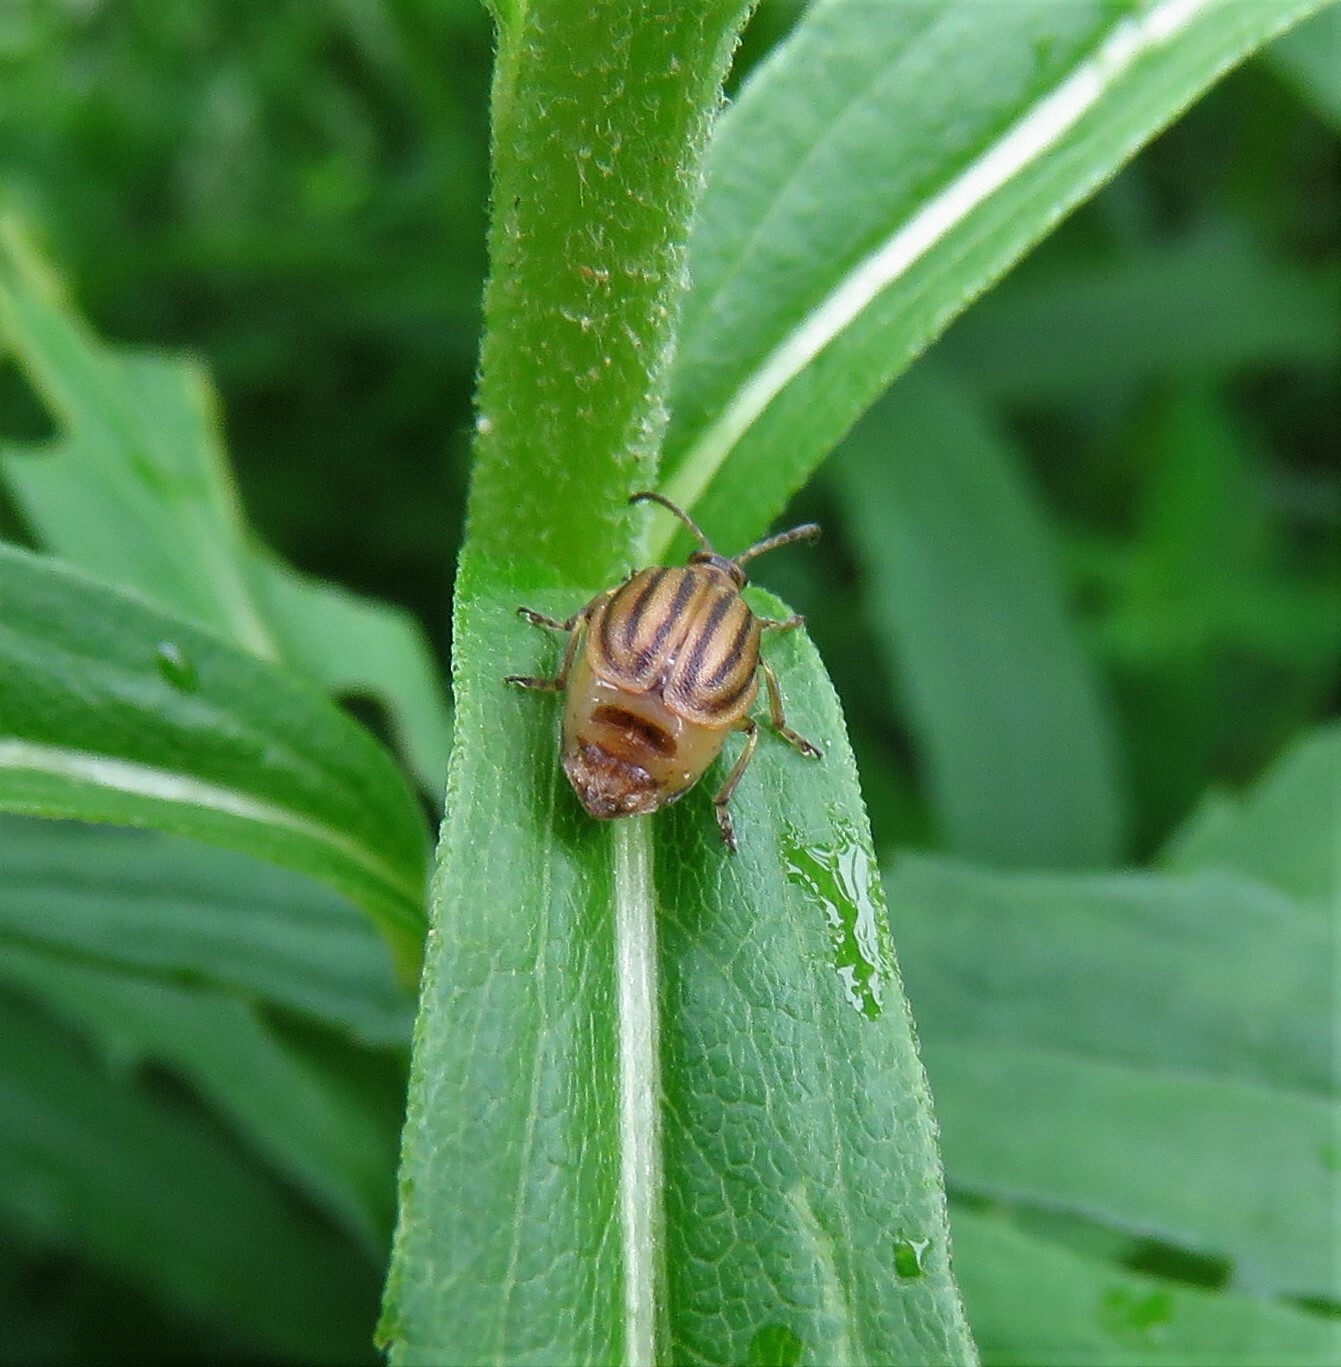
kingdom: Animalia
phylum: Arthropoda
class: Insecta
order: Coleoptera
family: Chrysomelidae
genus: Ophraella
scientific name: Ophraella conferta
